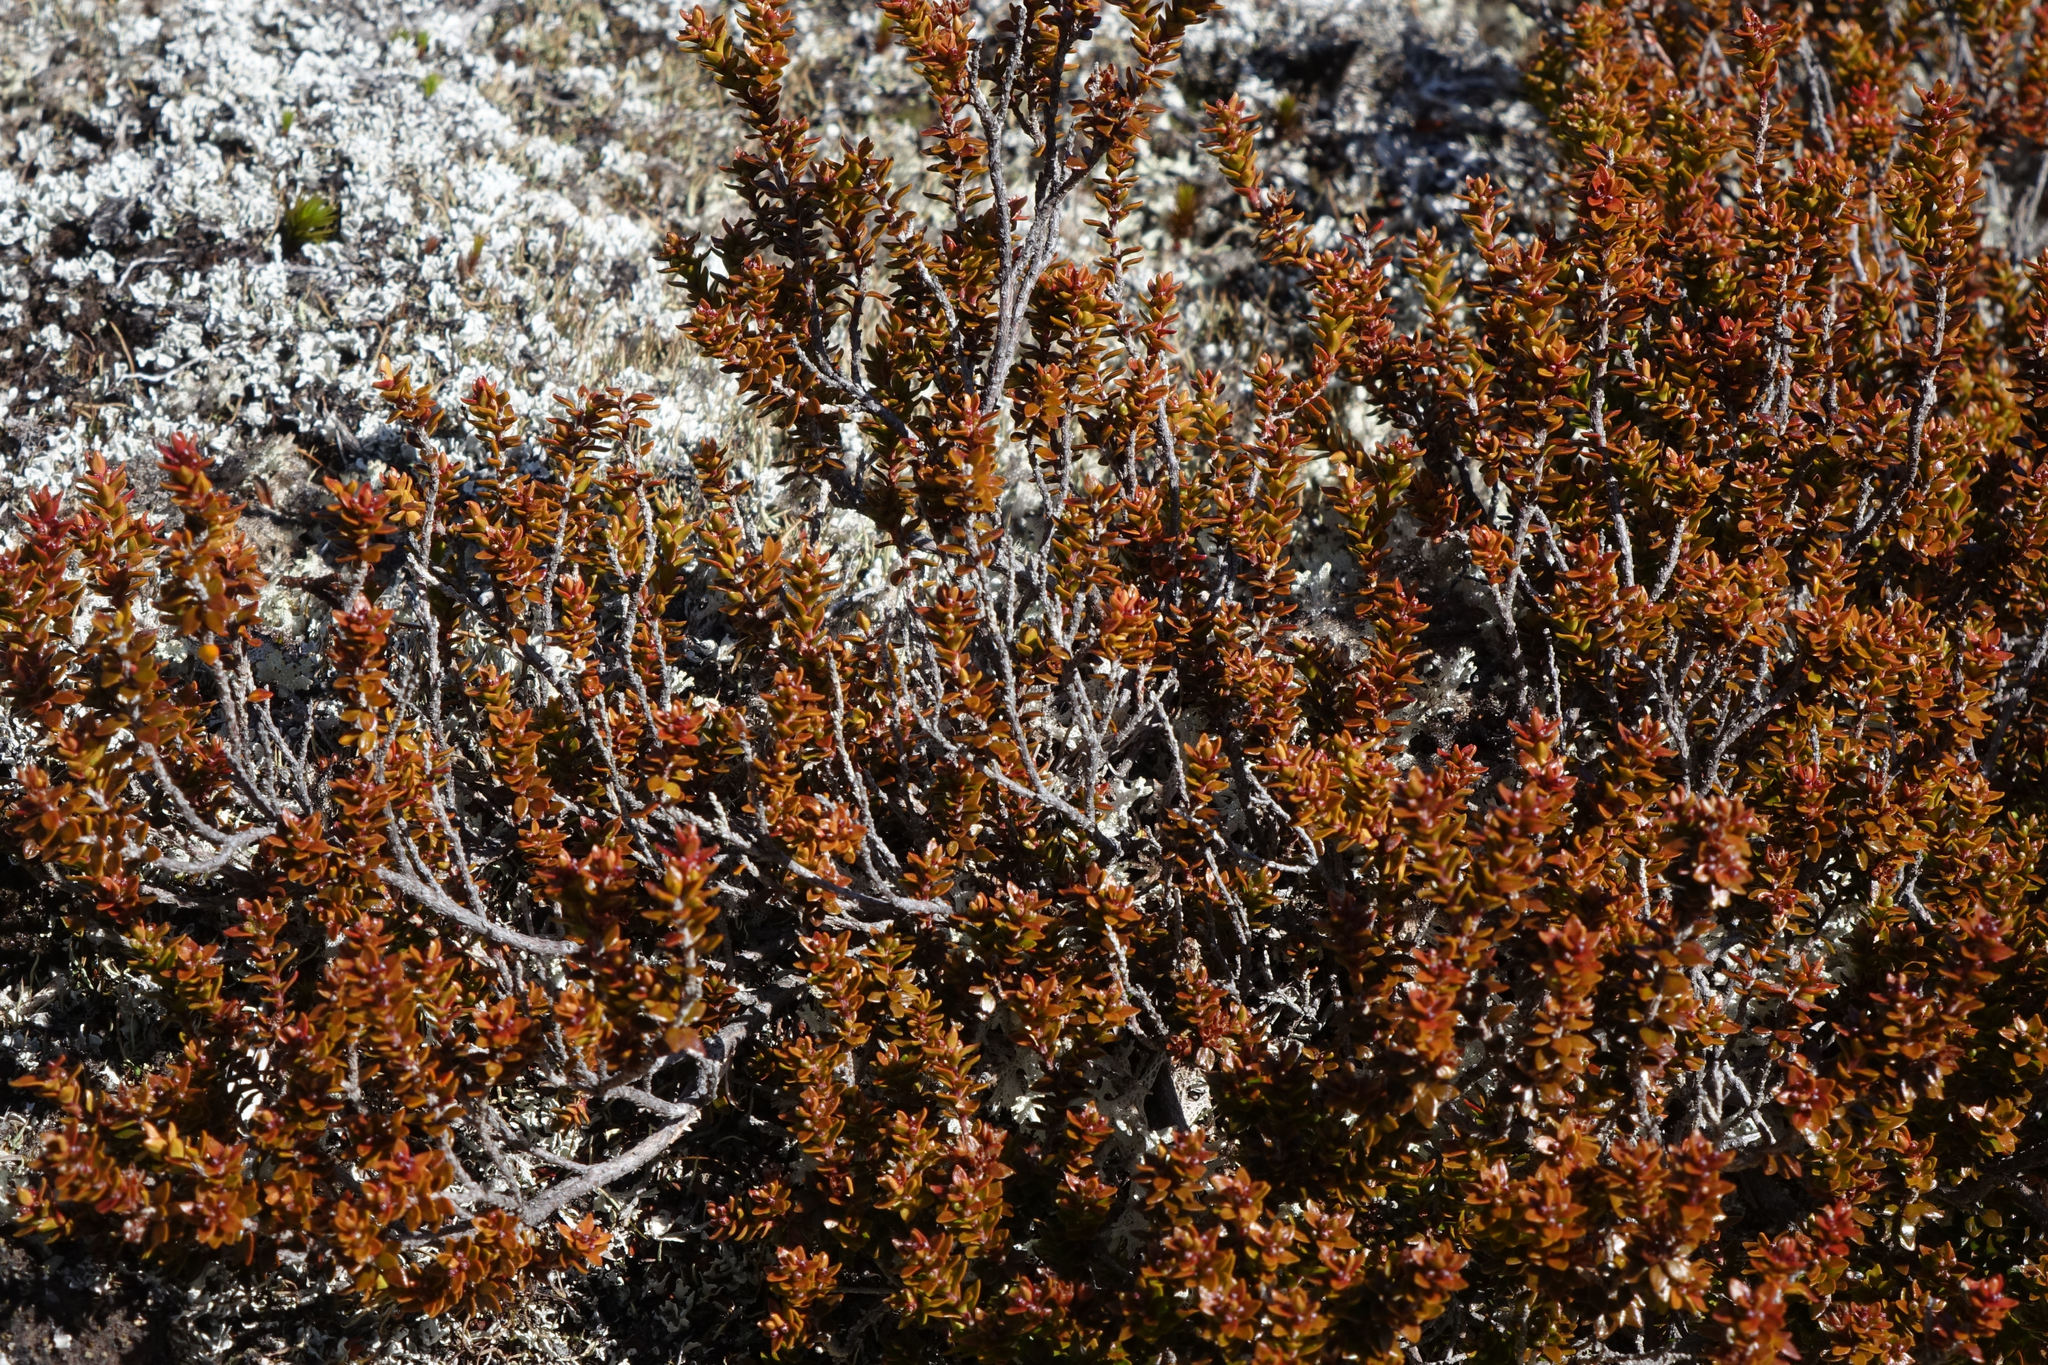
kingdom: Plantae
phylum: Tracheophyta
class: Magnoliopsida
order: Ericales
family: Ericaceae
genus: Epacris
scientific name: Epacris alpina
